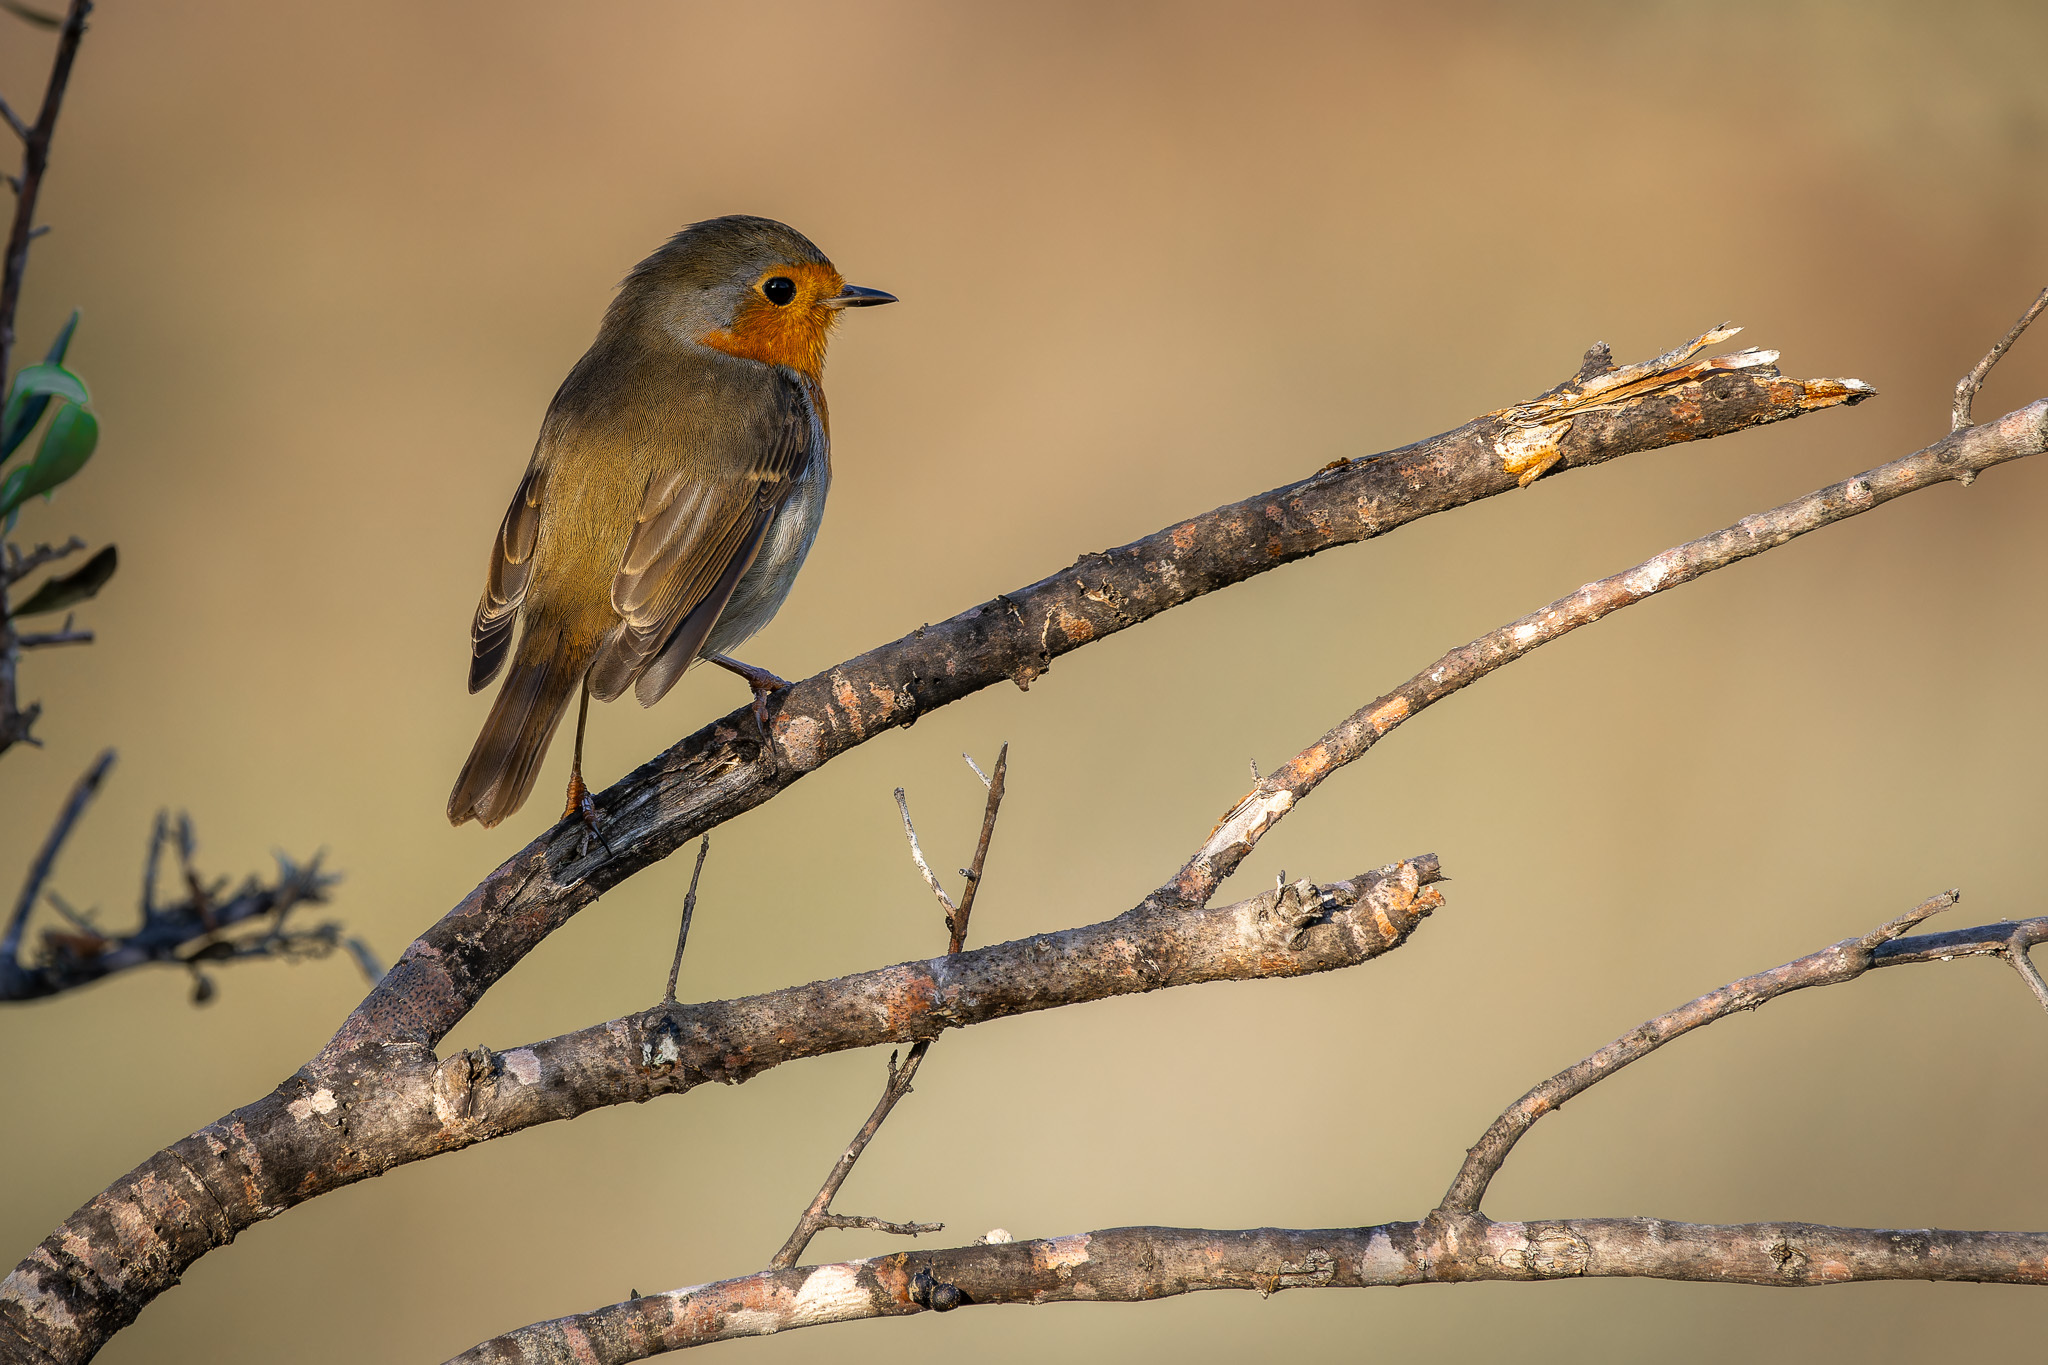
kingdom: Animalia
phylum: Chordata
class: Aves
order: Passeriformes
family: Muscicapidae
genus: Erithacus
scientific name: Erithacus rubecula
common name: European robin
